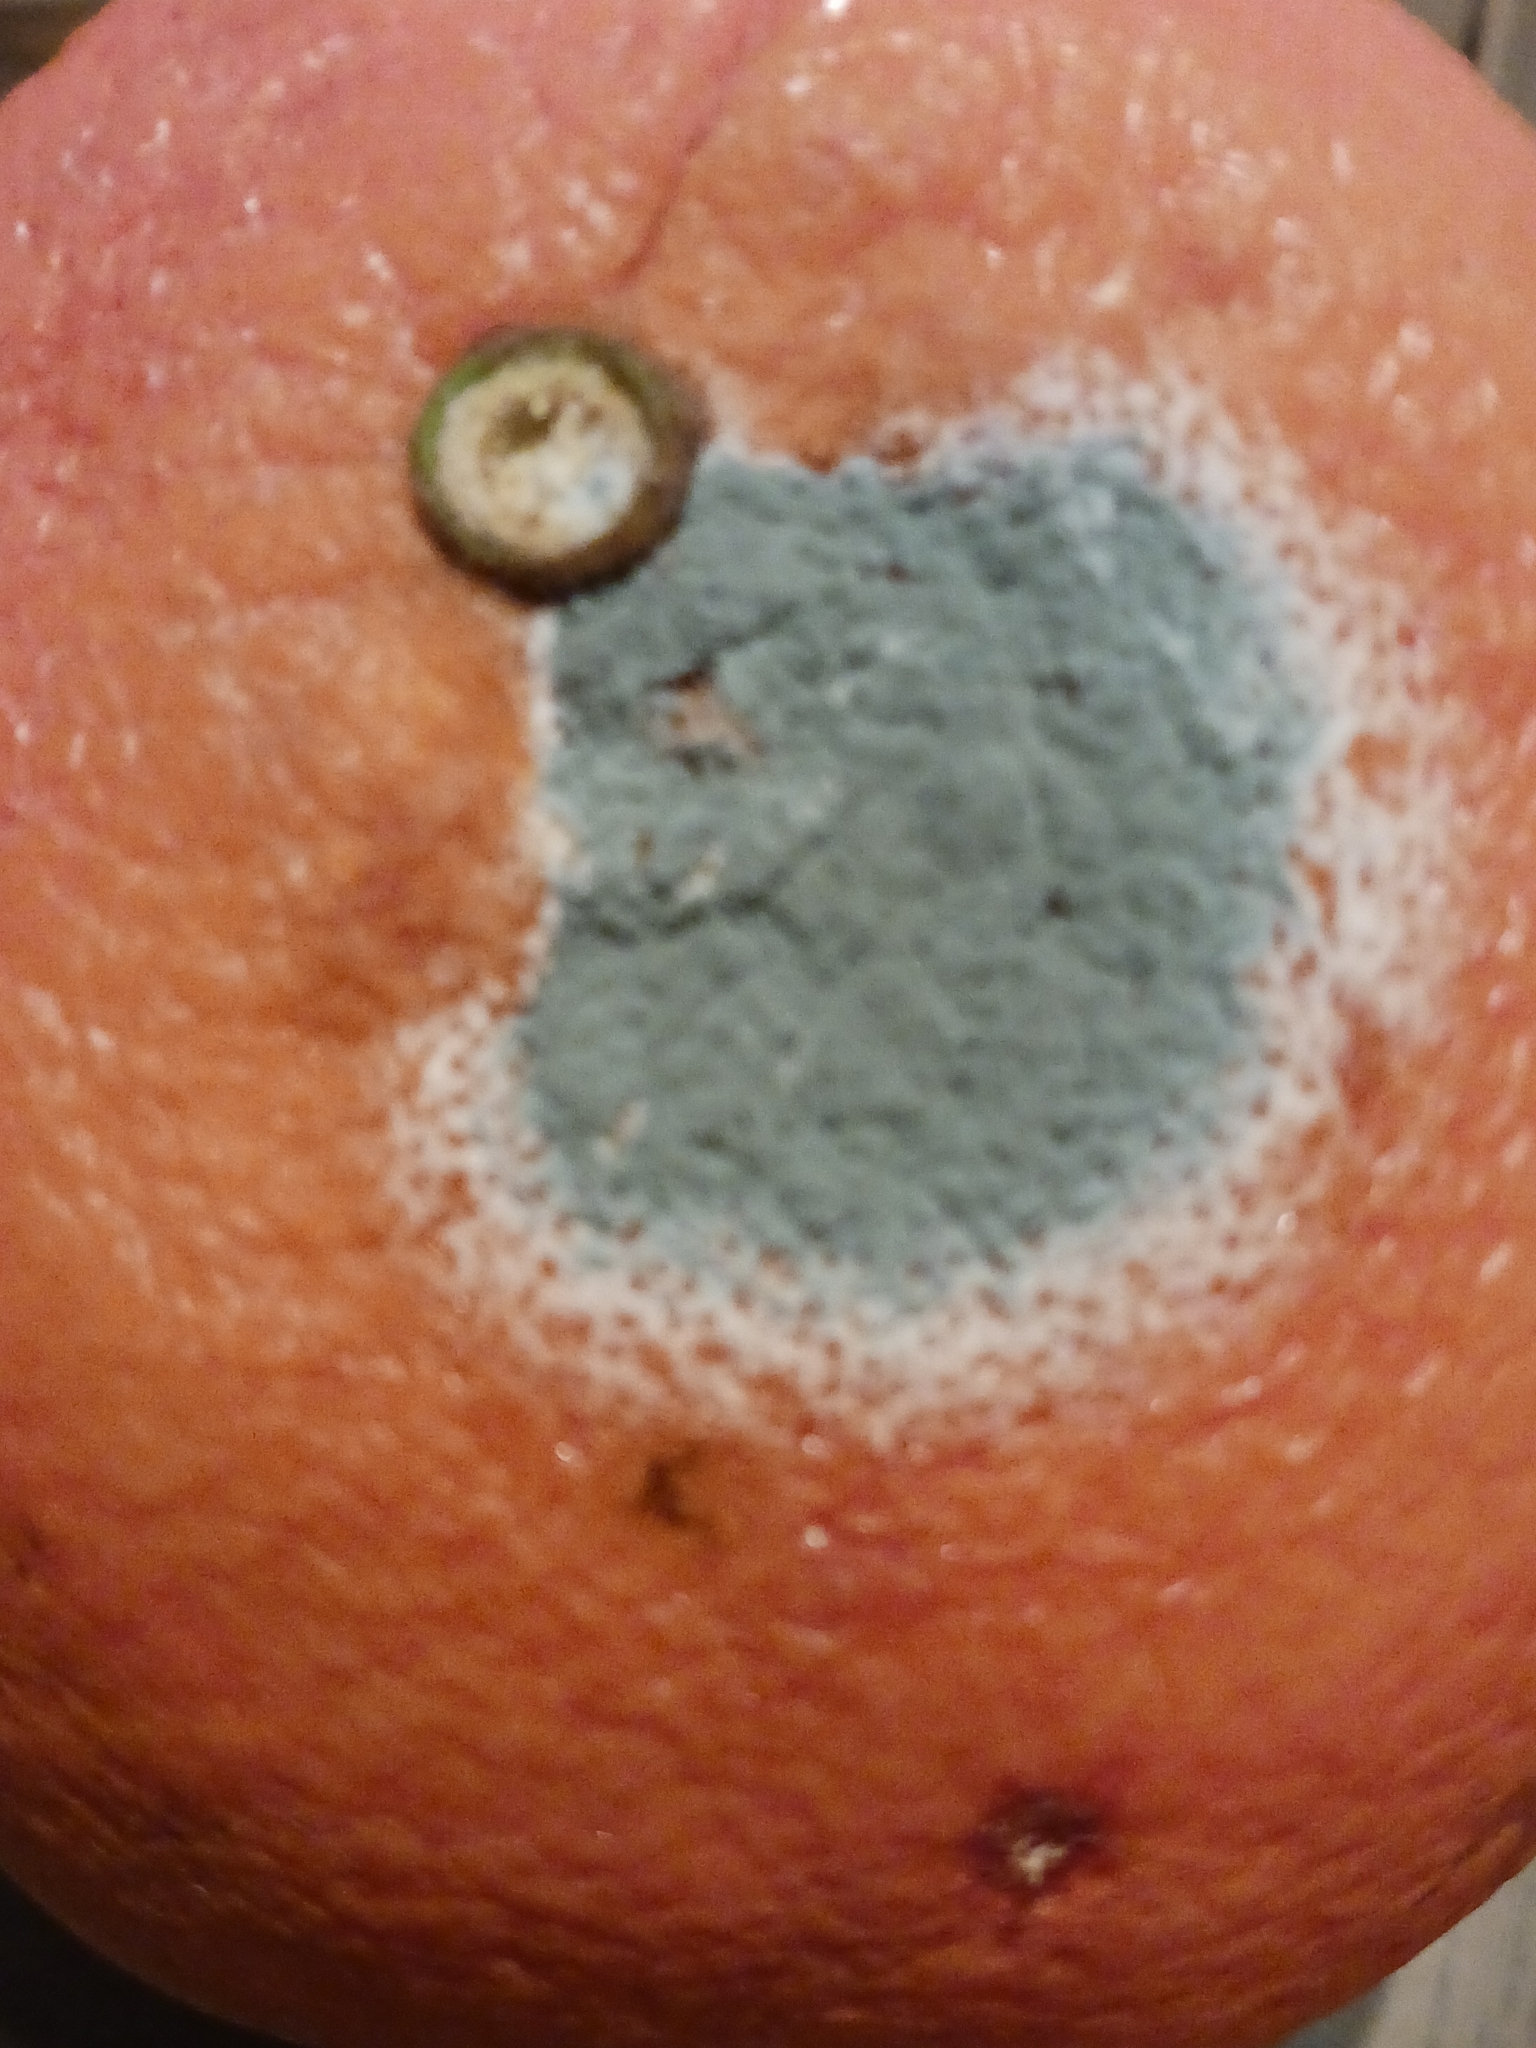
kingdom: Fungi
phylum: Ascomycota
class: Eurotiomycetes
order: Eurotiales
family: Aspergillaceae
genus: Penicillium
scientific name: Penicillium digitatum
